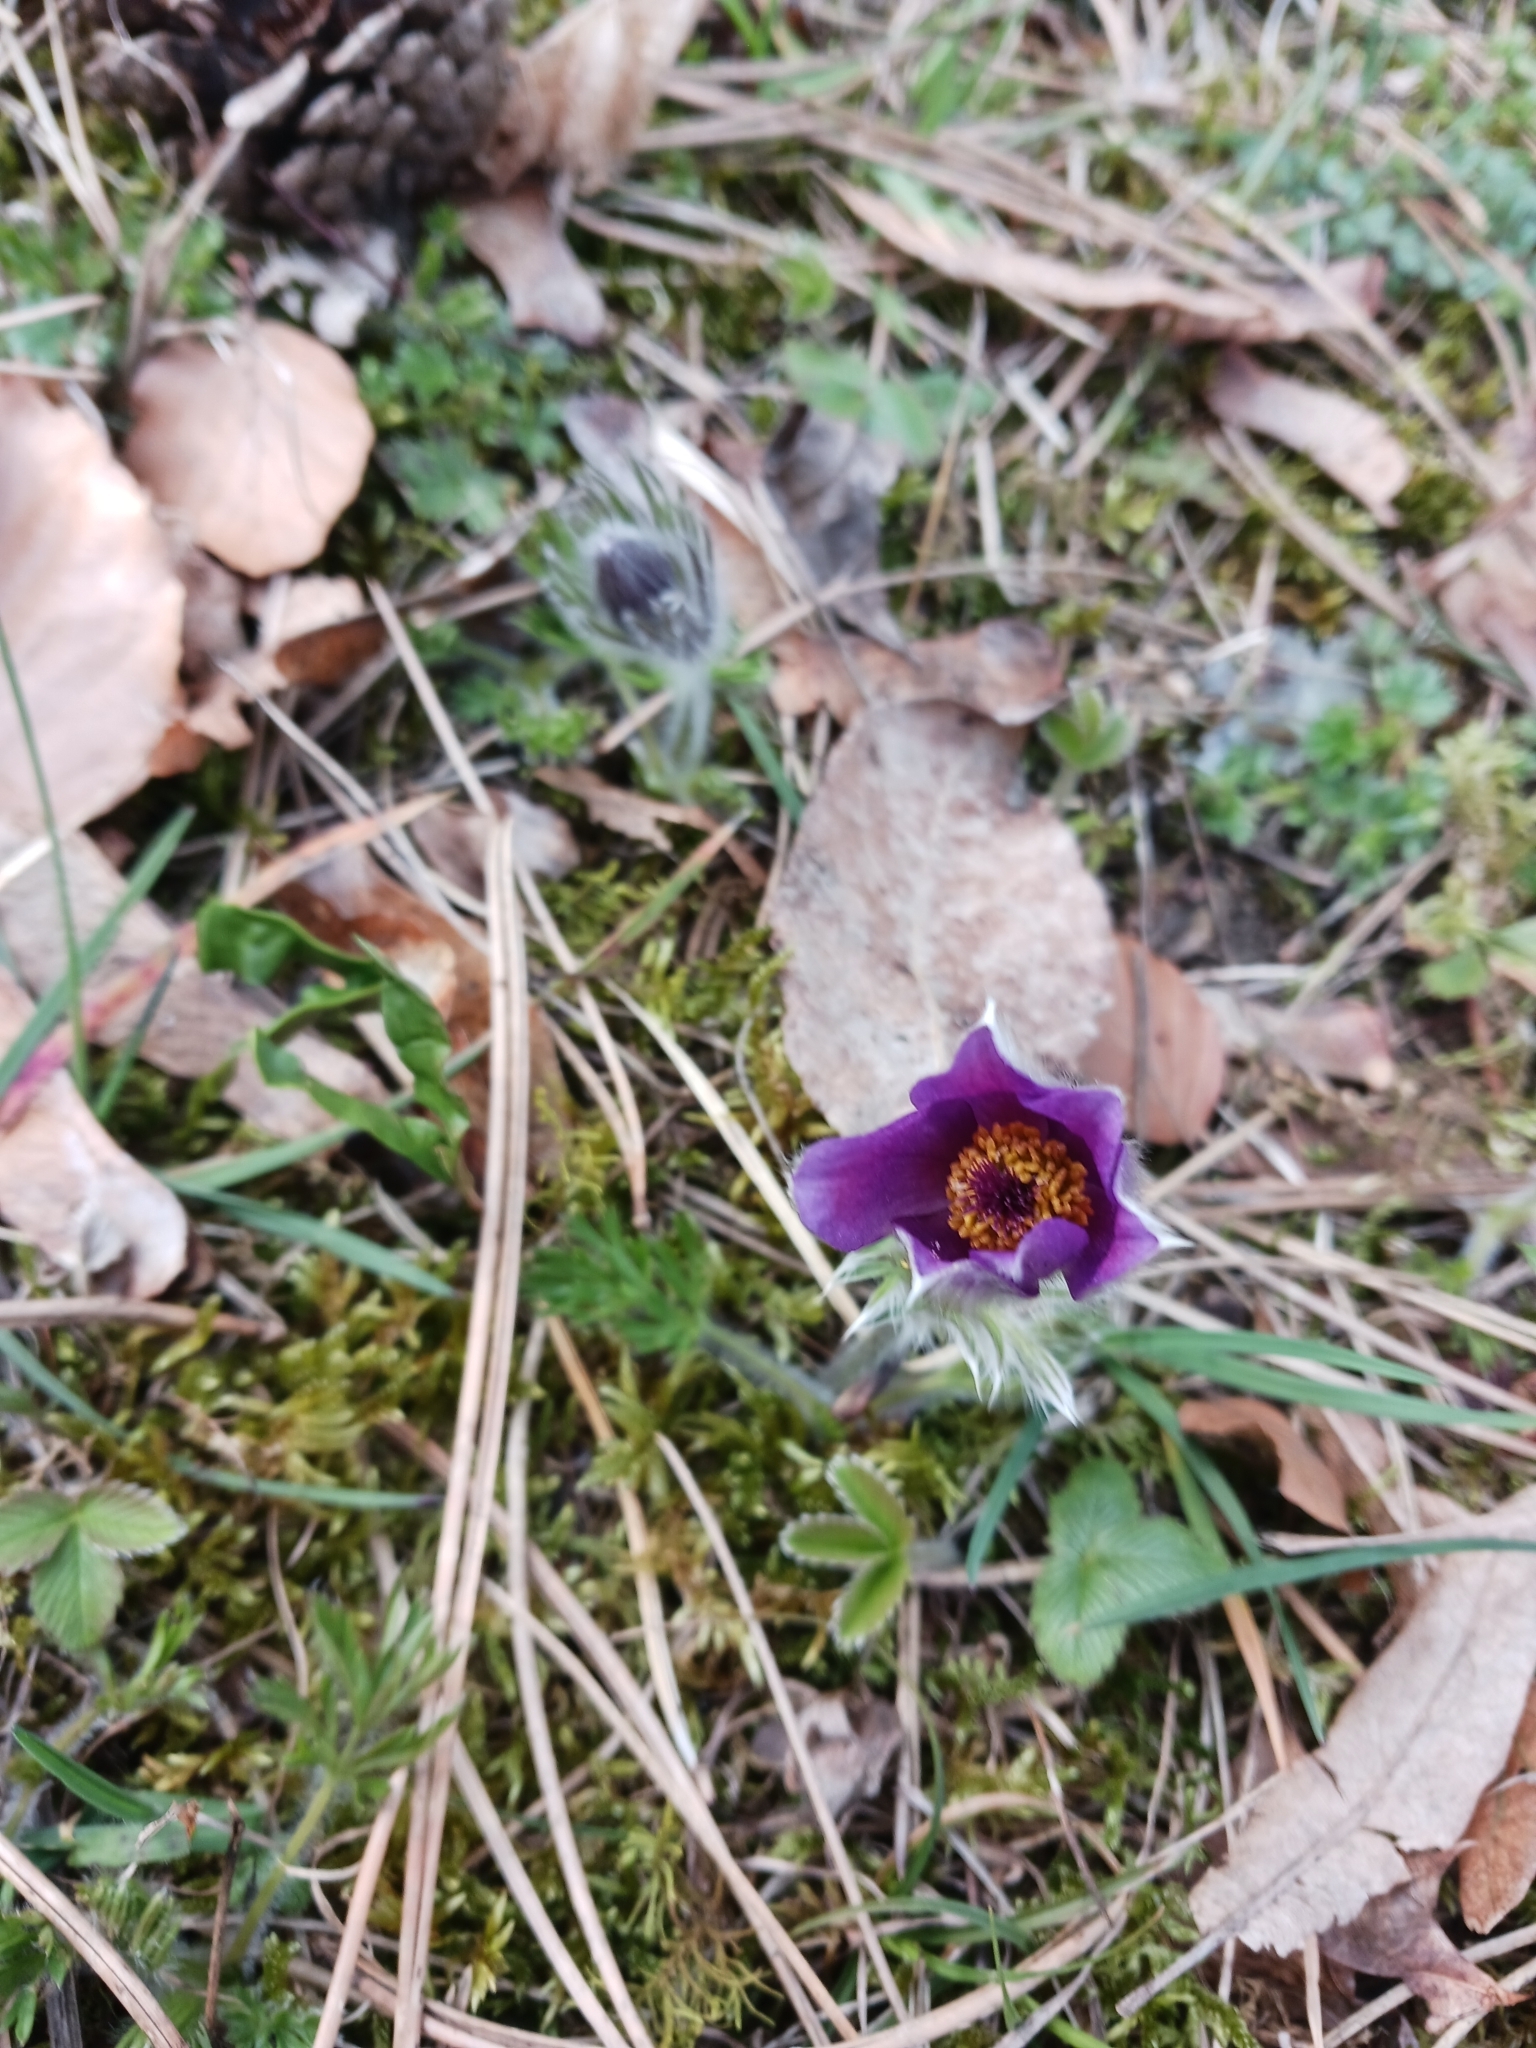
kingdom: Plantae
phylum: Tracheophyta
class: Magnoliopsida
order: Ranunculales
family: Ranunculaceae
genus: Pulsatilla
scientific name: Pulsatilla vulgaris
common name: Pasqueflower
